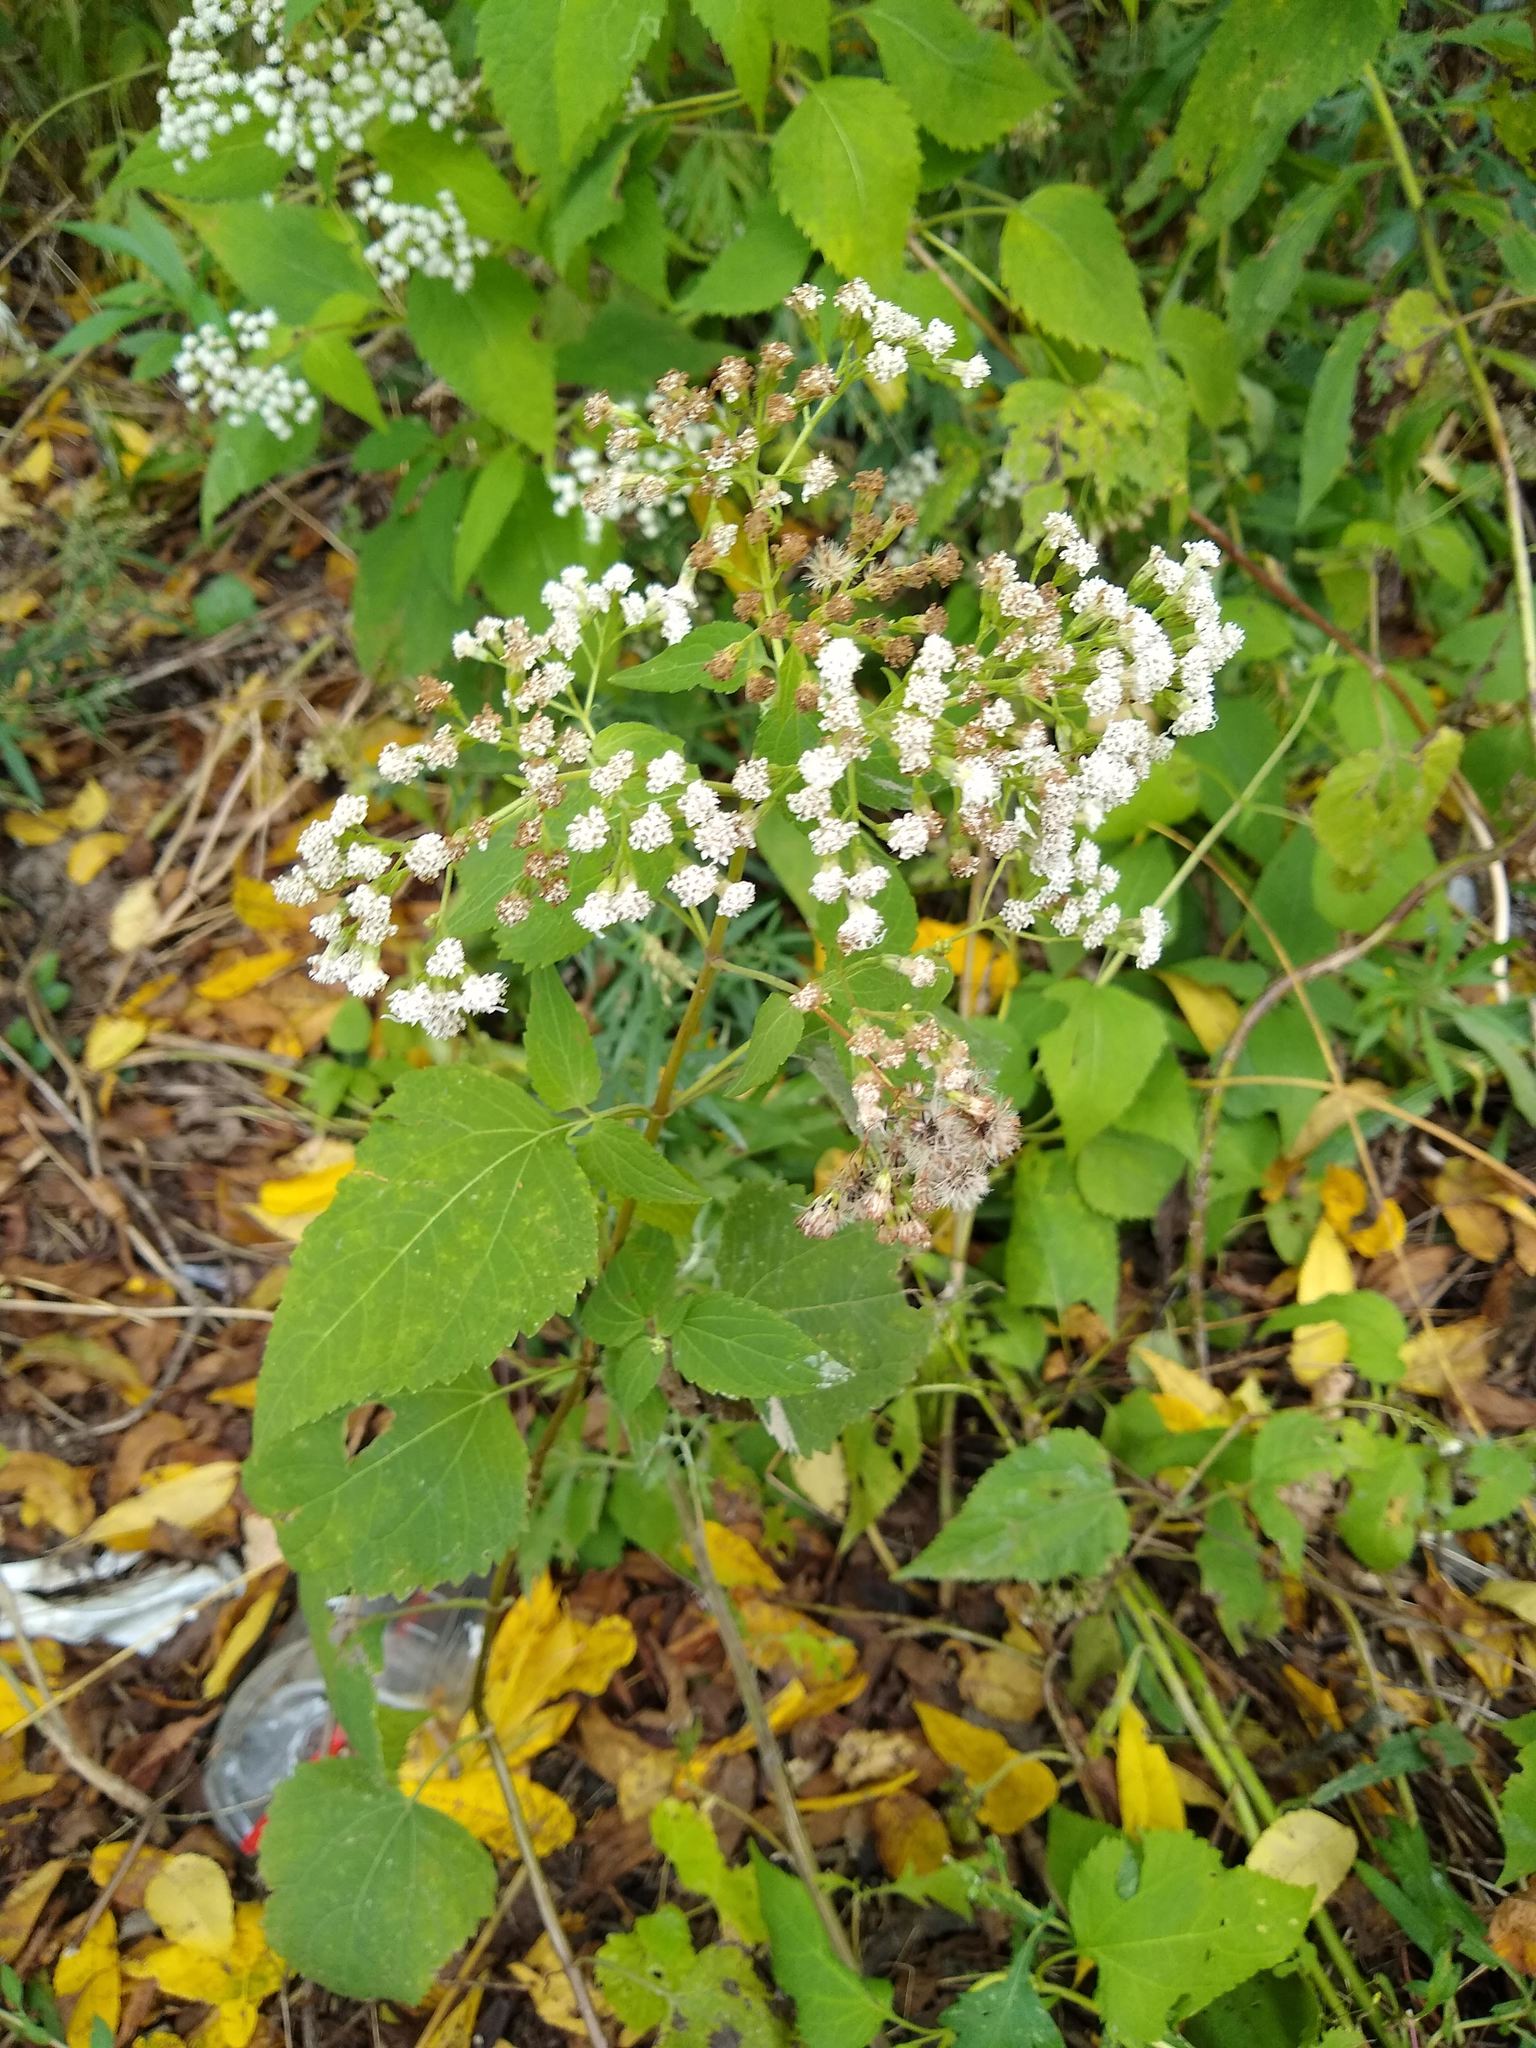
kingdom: Plantae
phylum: Tracheophyta
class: Magnoliopsida
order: Asterales
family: Asteraceae
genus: Ageratina
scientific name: Ageratina altissima
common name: White snakeroot
